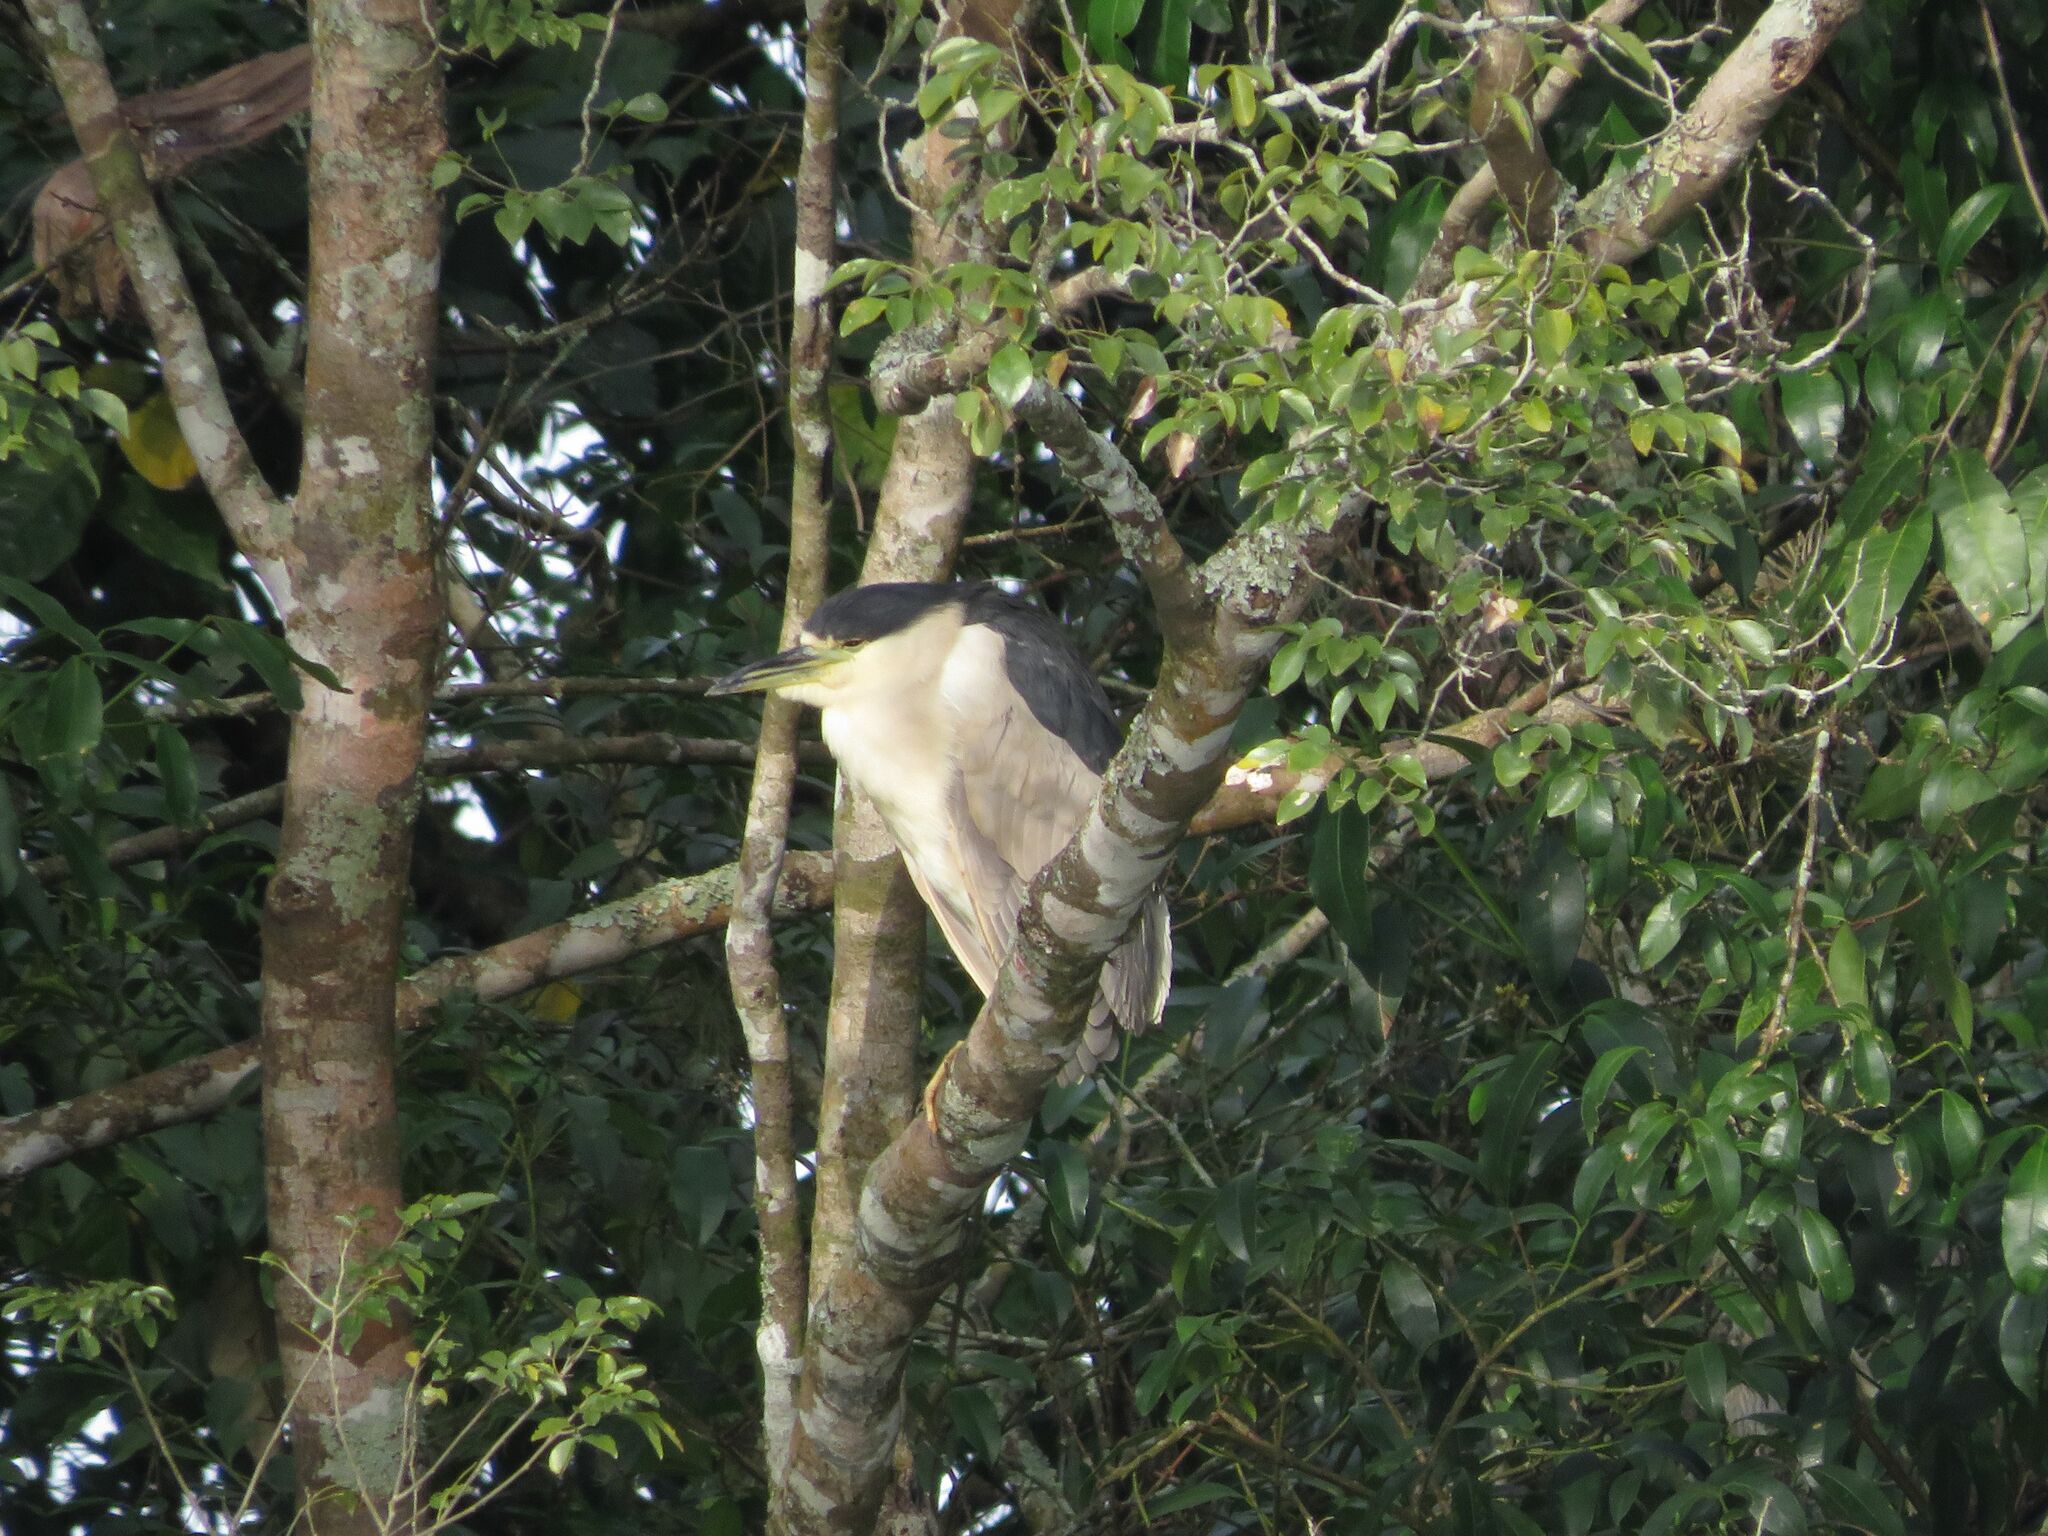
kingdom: Animalia
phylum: Chordata
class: Aves
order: Pelecaniformes
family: Ardeidae
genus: Nycticorax
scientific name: Nycticorax nycticorax
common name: Black-crowned night heron
